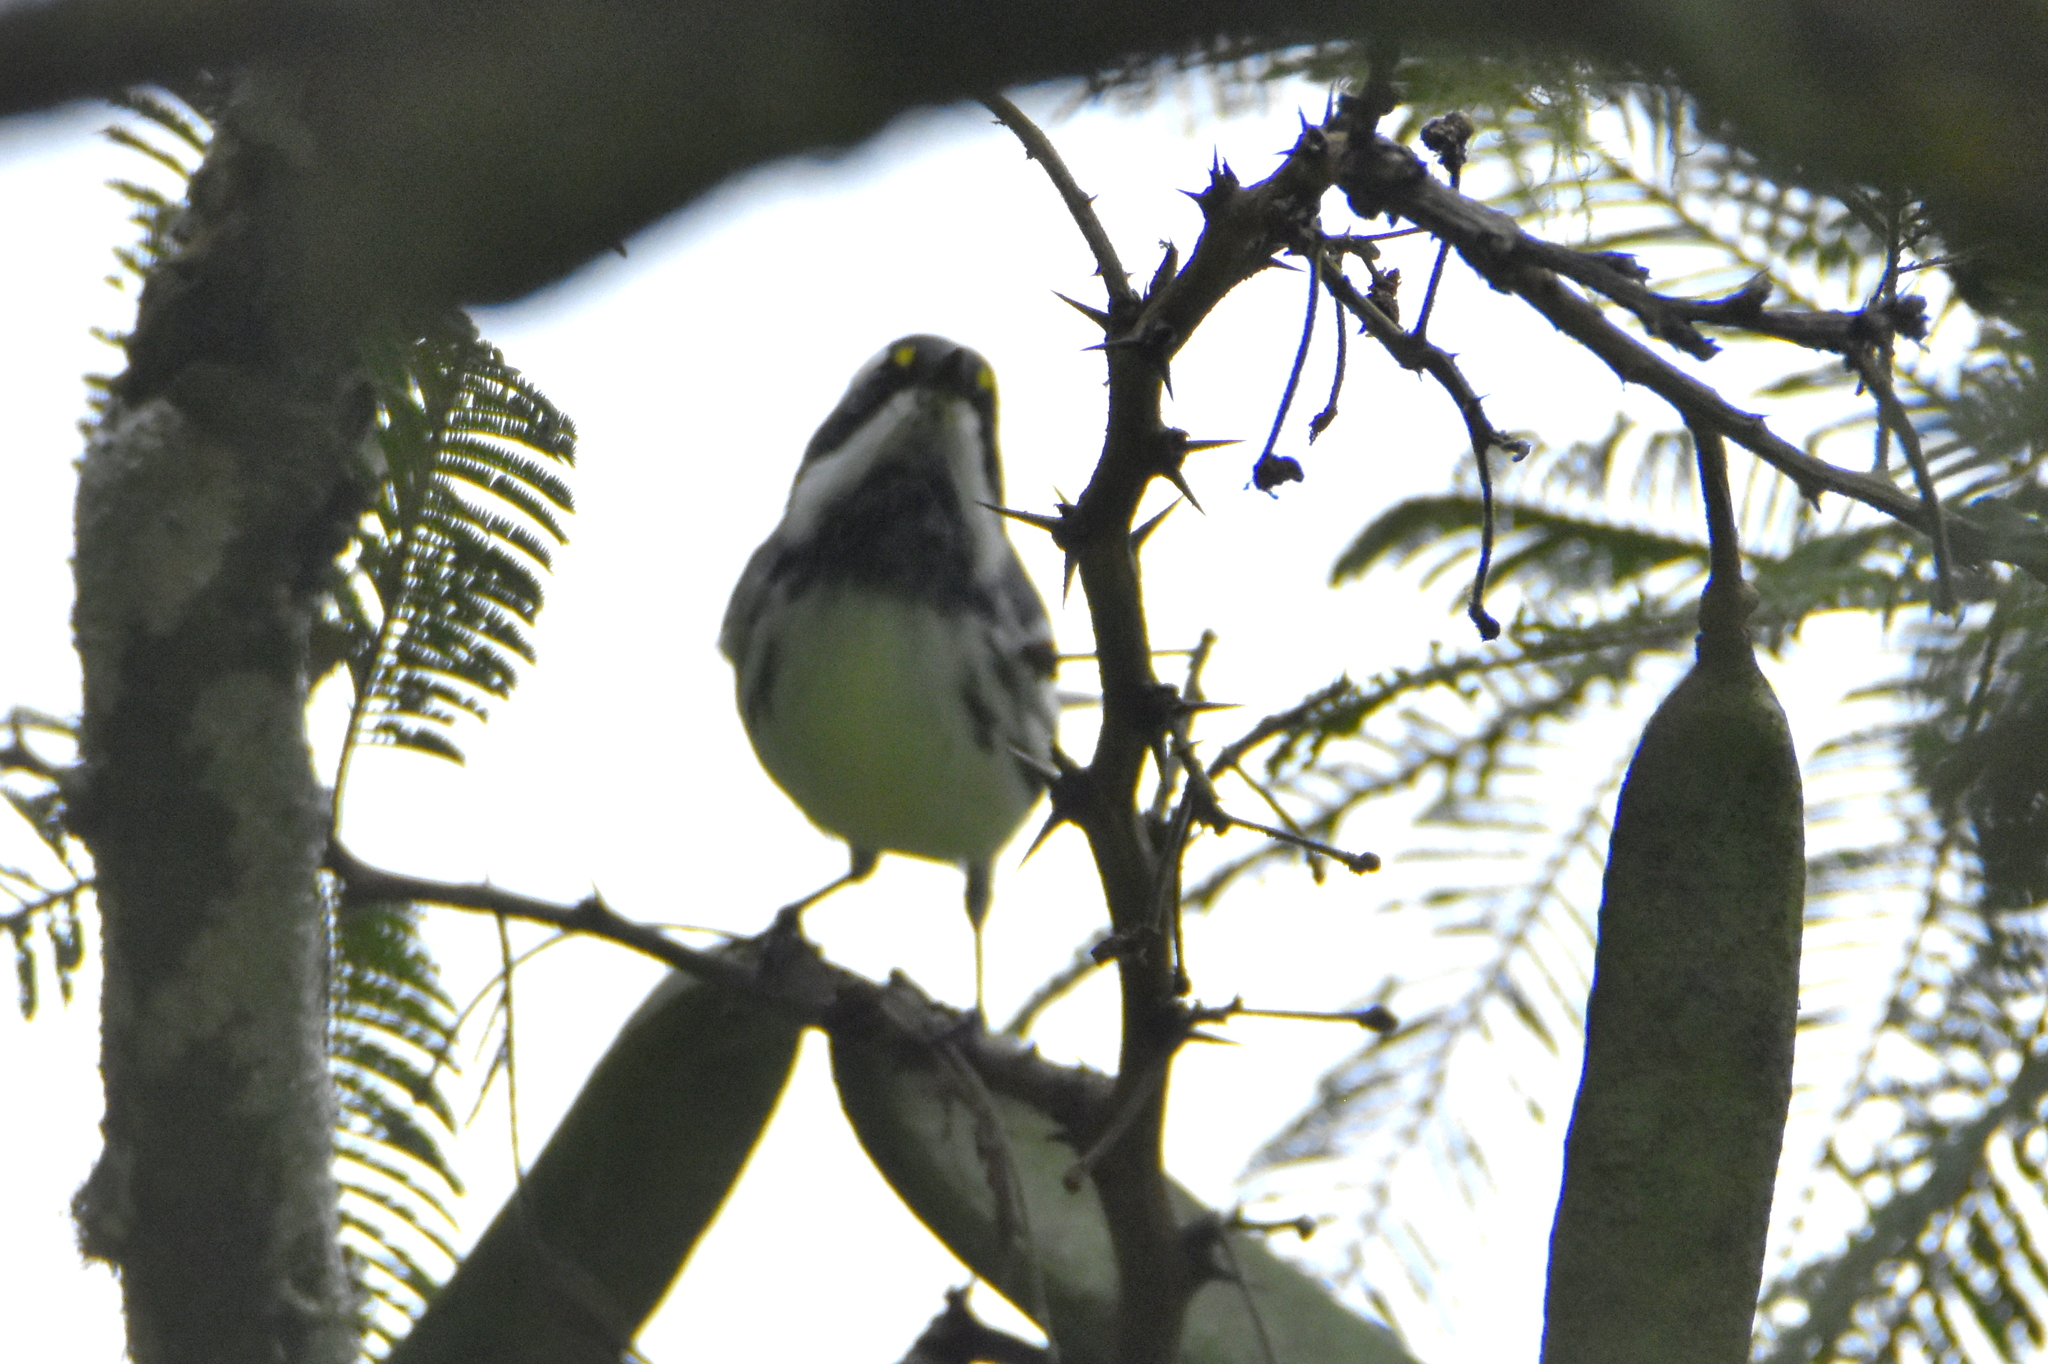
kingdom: Animalia
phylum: Chordata
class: Aves
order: Passeriformes
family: Parulidae
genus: Setophaga
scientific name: Setophaga nigrescens
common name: Black-throated gray warbler
